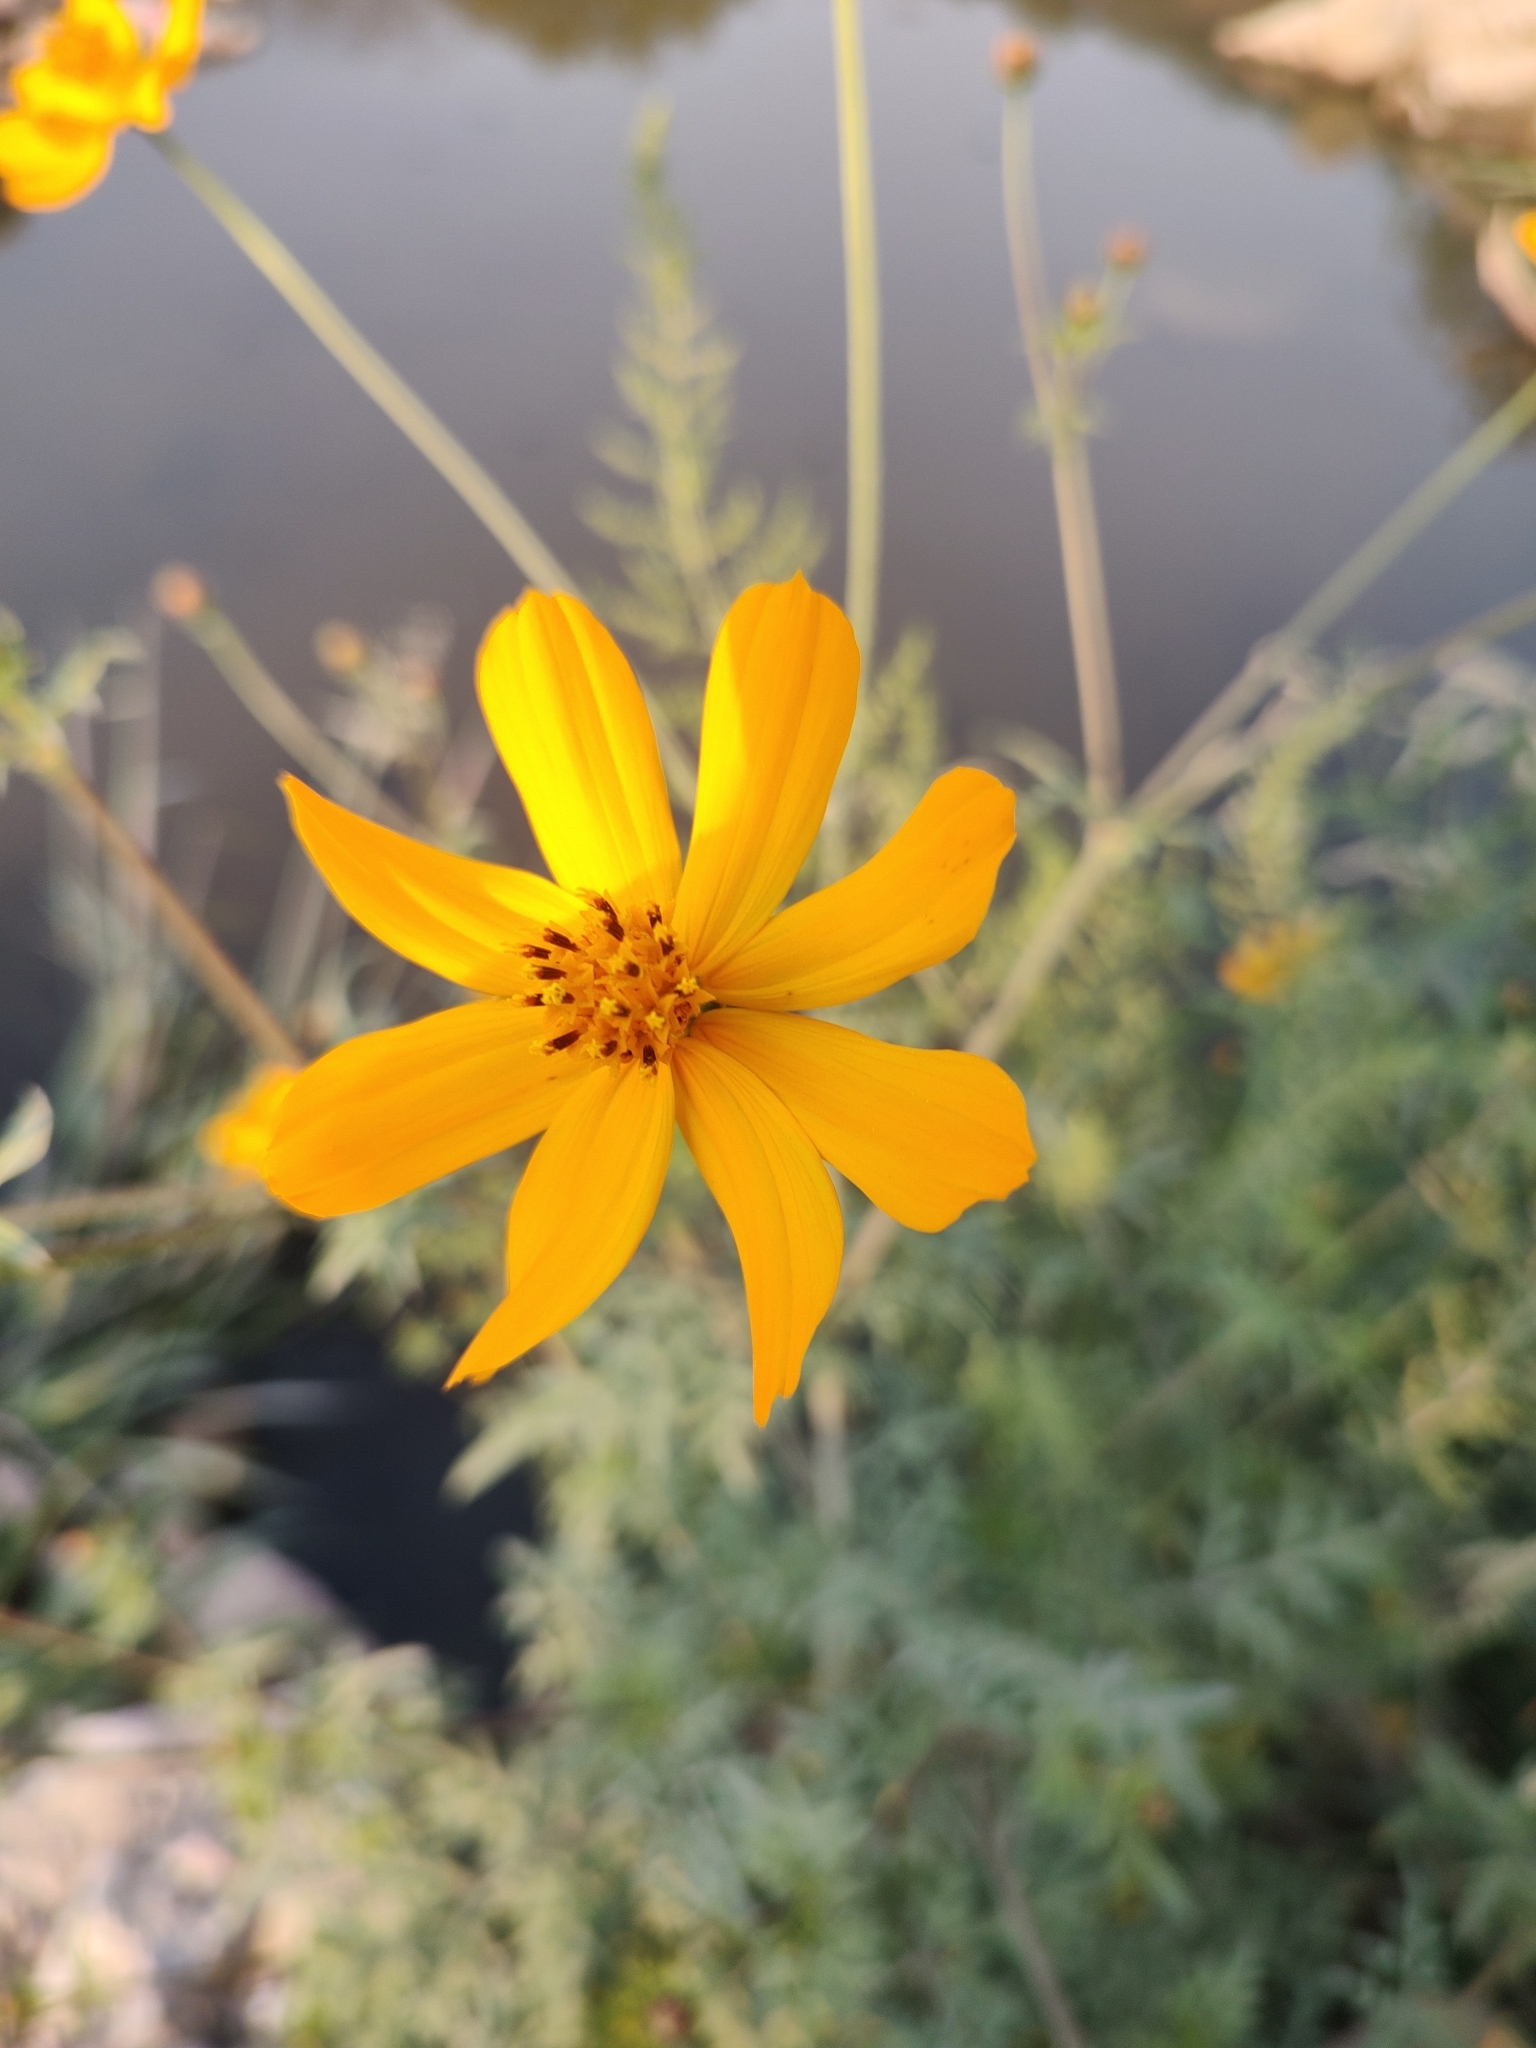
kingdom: Plantae
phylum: Tracheophyta
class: Magnoliopsida
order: Asterales
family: Asteraceae
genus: Cosmos
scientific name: Cosmos sulphureus
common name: Sulphur cosmos
